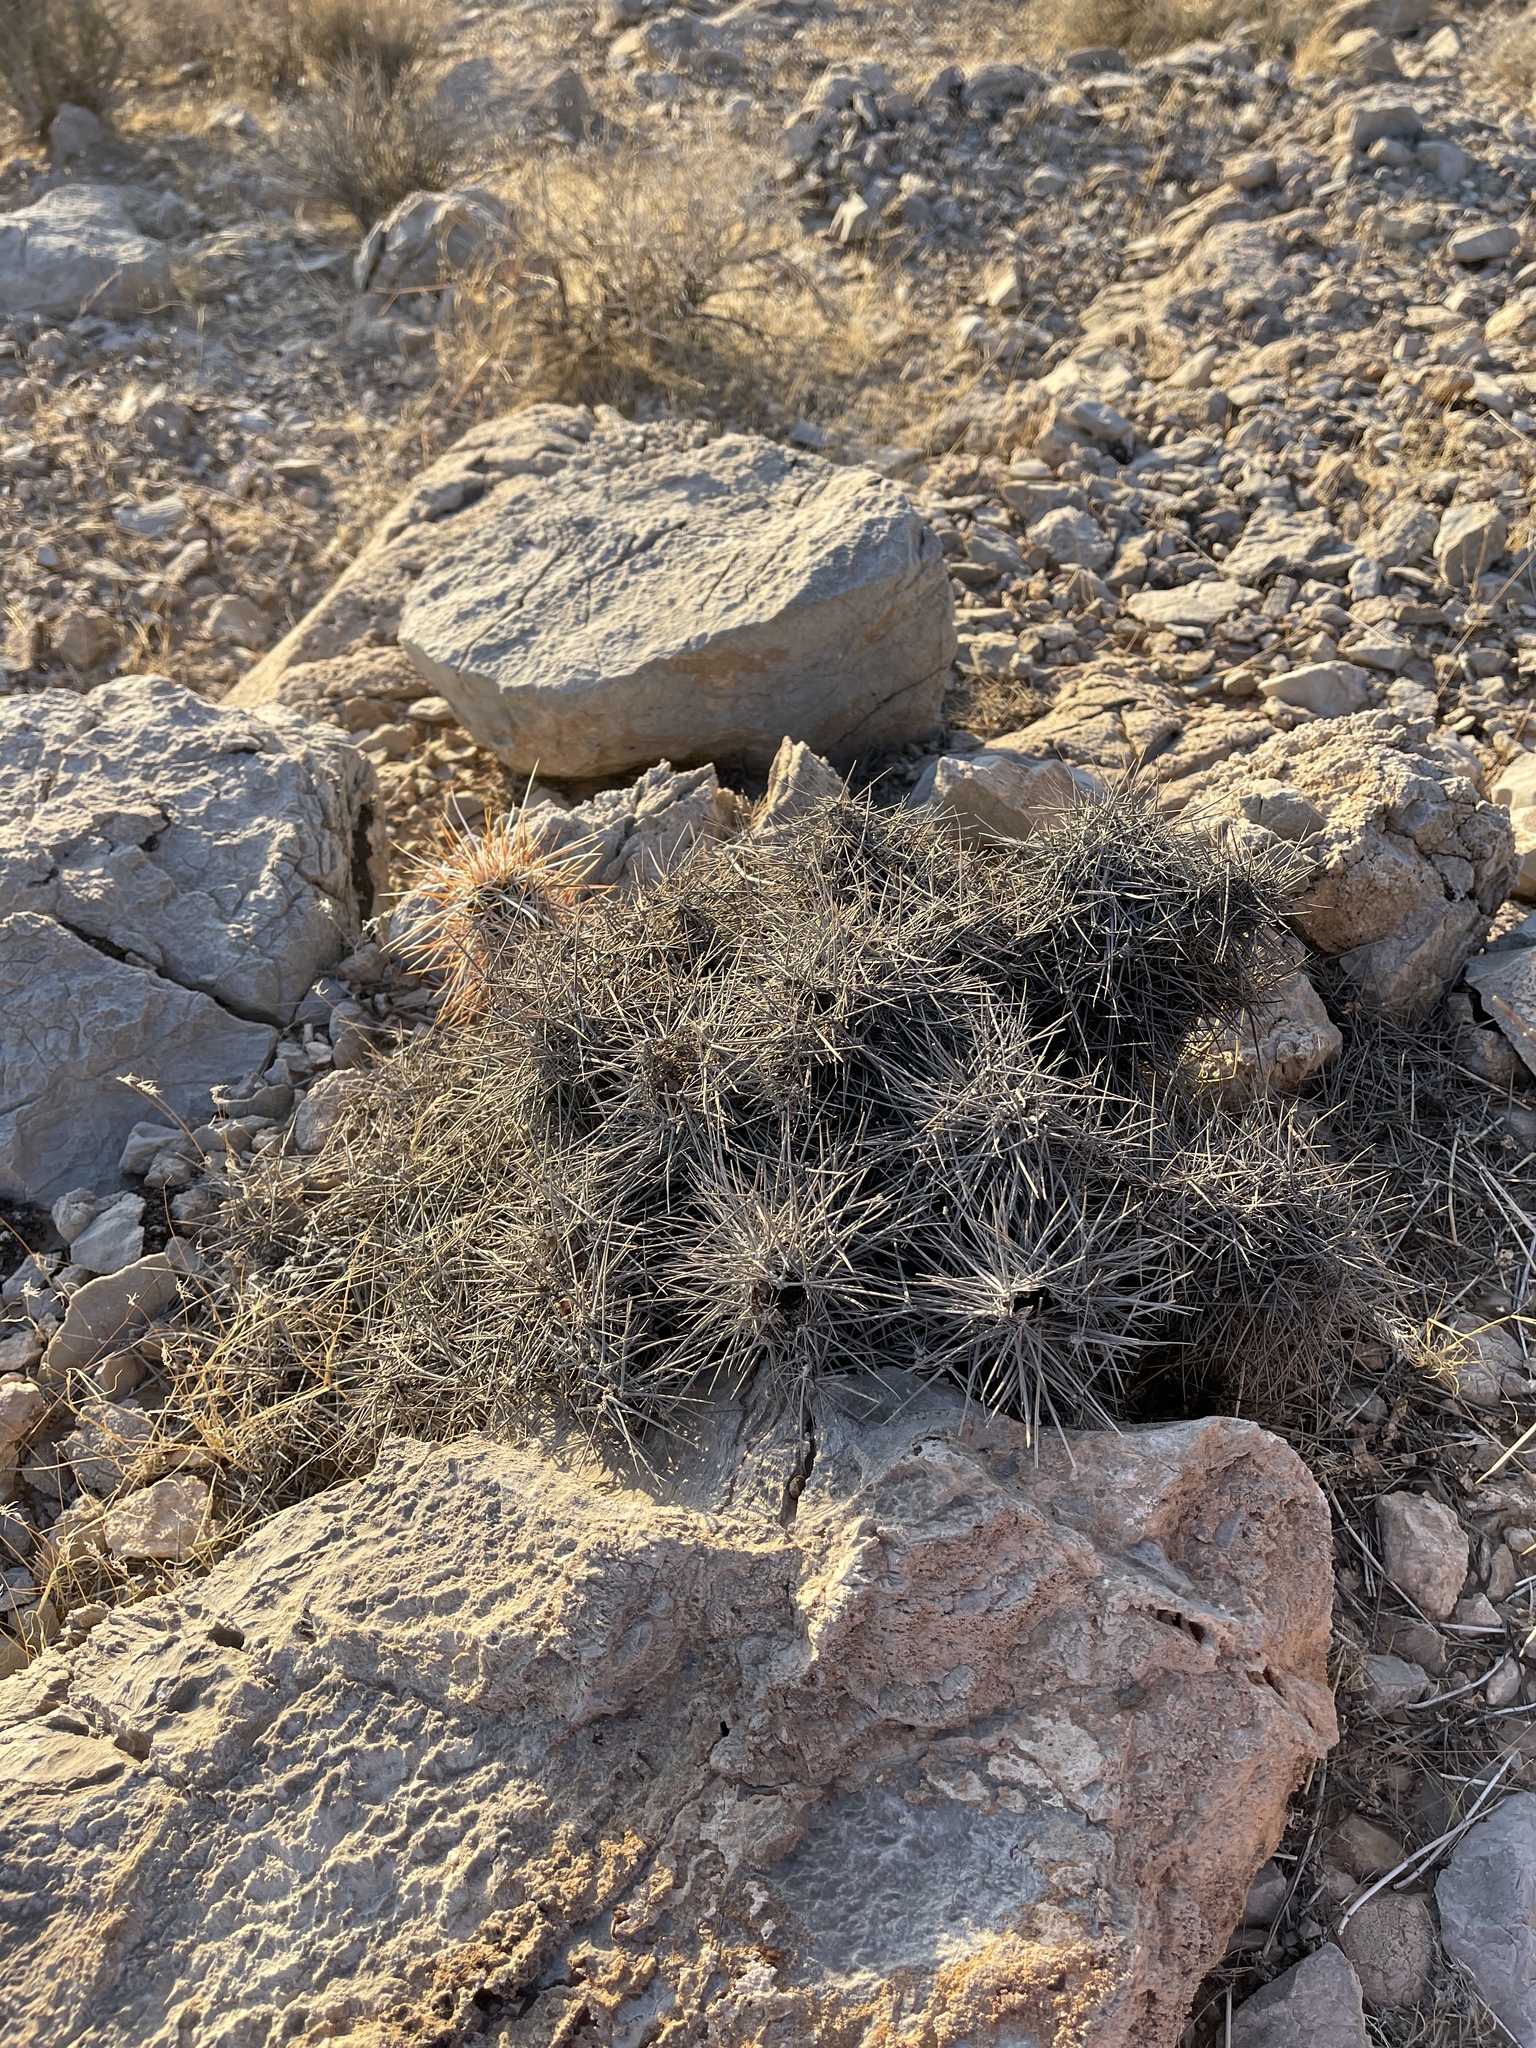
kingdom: Plantae
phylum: Tracheophyta
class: Magnoliopsida
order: Caryophyllales
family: Cactaceae
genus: Echinocereus
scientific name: Echinocereus engelmannii
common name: Engelmann's hedgehog cactus
